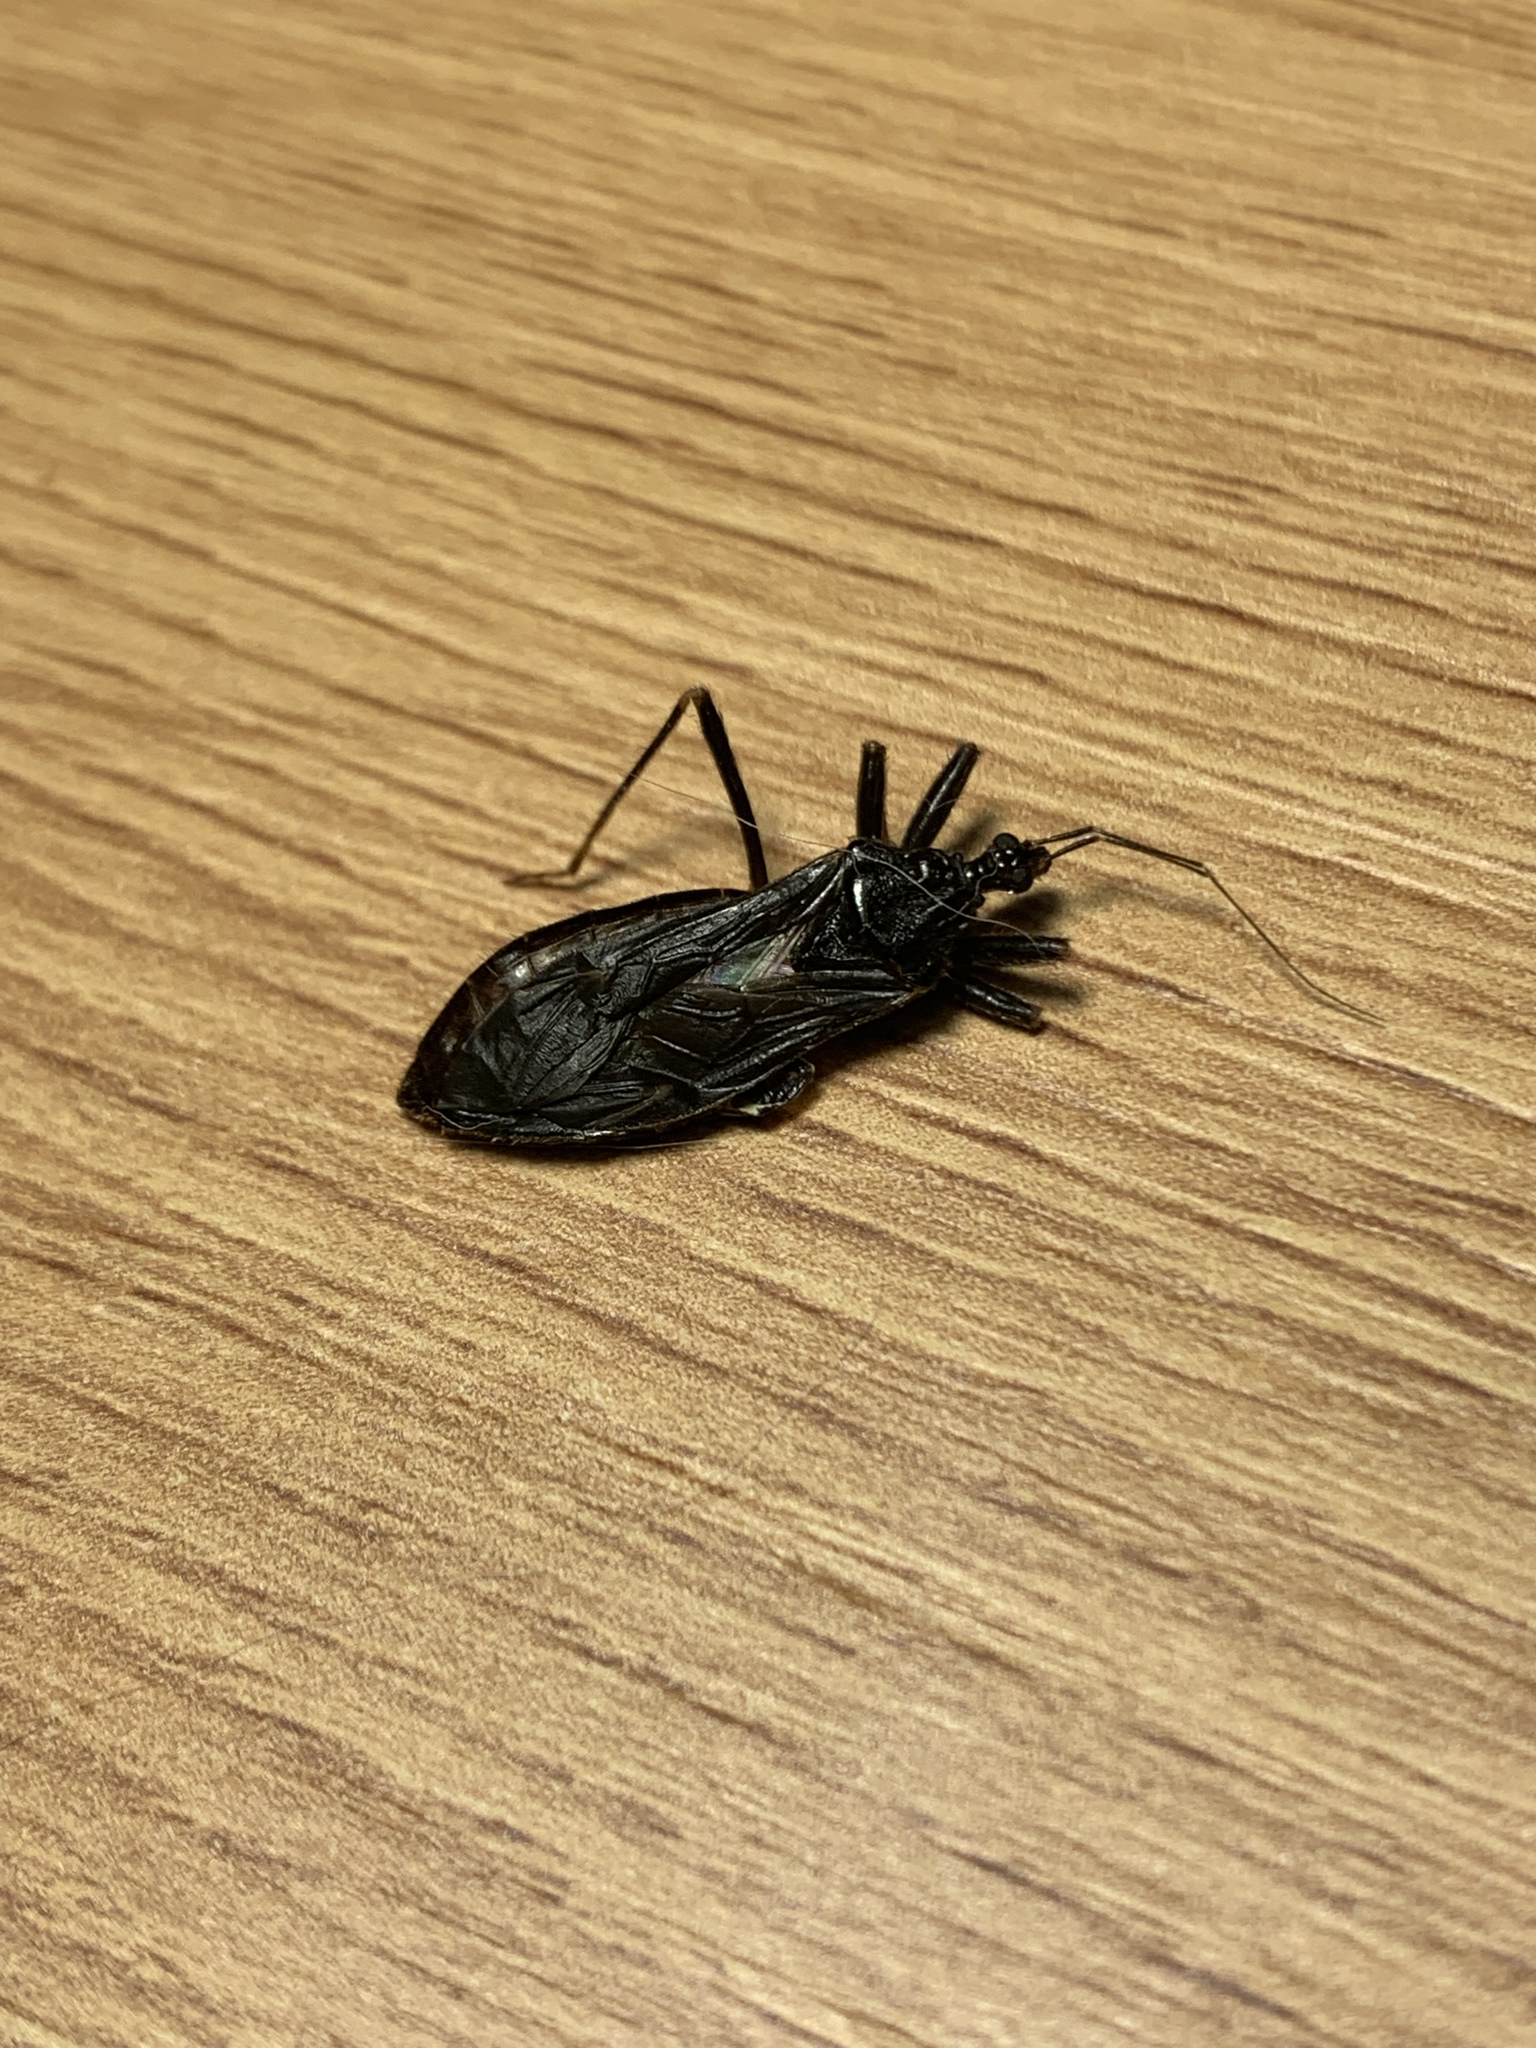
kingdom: Animalia
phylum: Arthropoda
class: Insecta
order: Hemiptera
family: Reduviidae
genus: Reduvius
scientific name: Reduvius personatus
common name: Masked hunter
